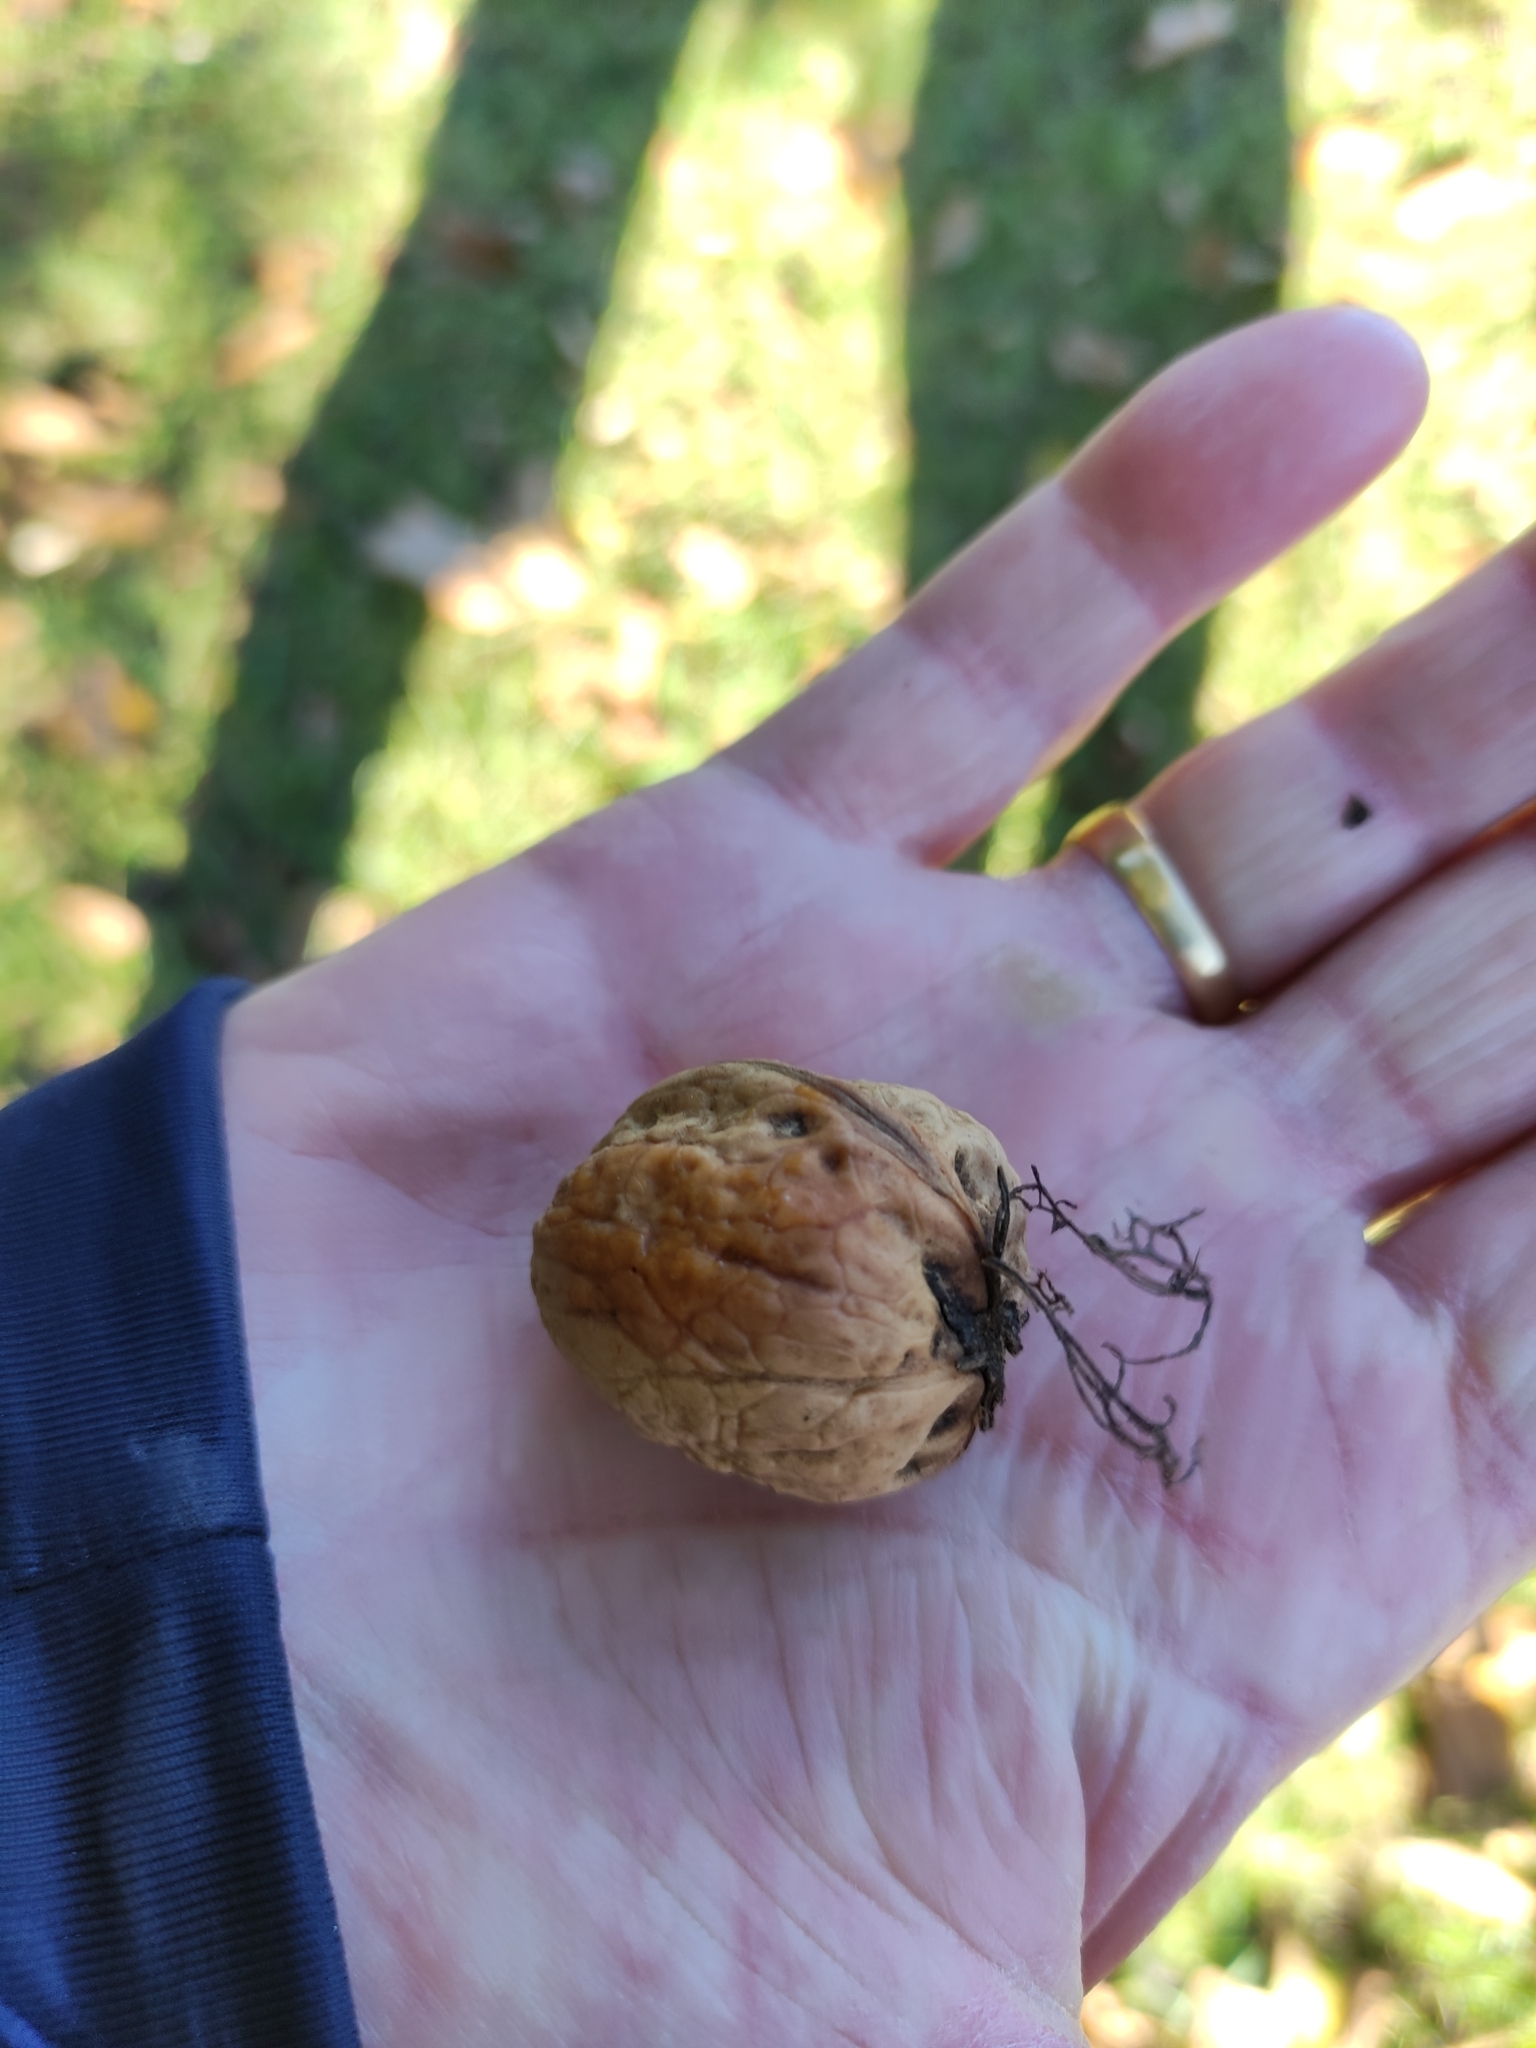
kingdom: Plantae
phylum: Tracheophyta
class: Magnoliopsida
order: Fagales
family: Juglandaceae
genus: Juglans
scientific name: Juglans regia
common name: Walnut
